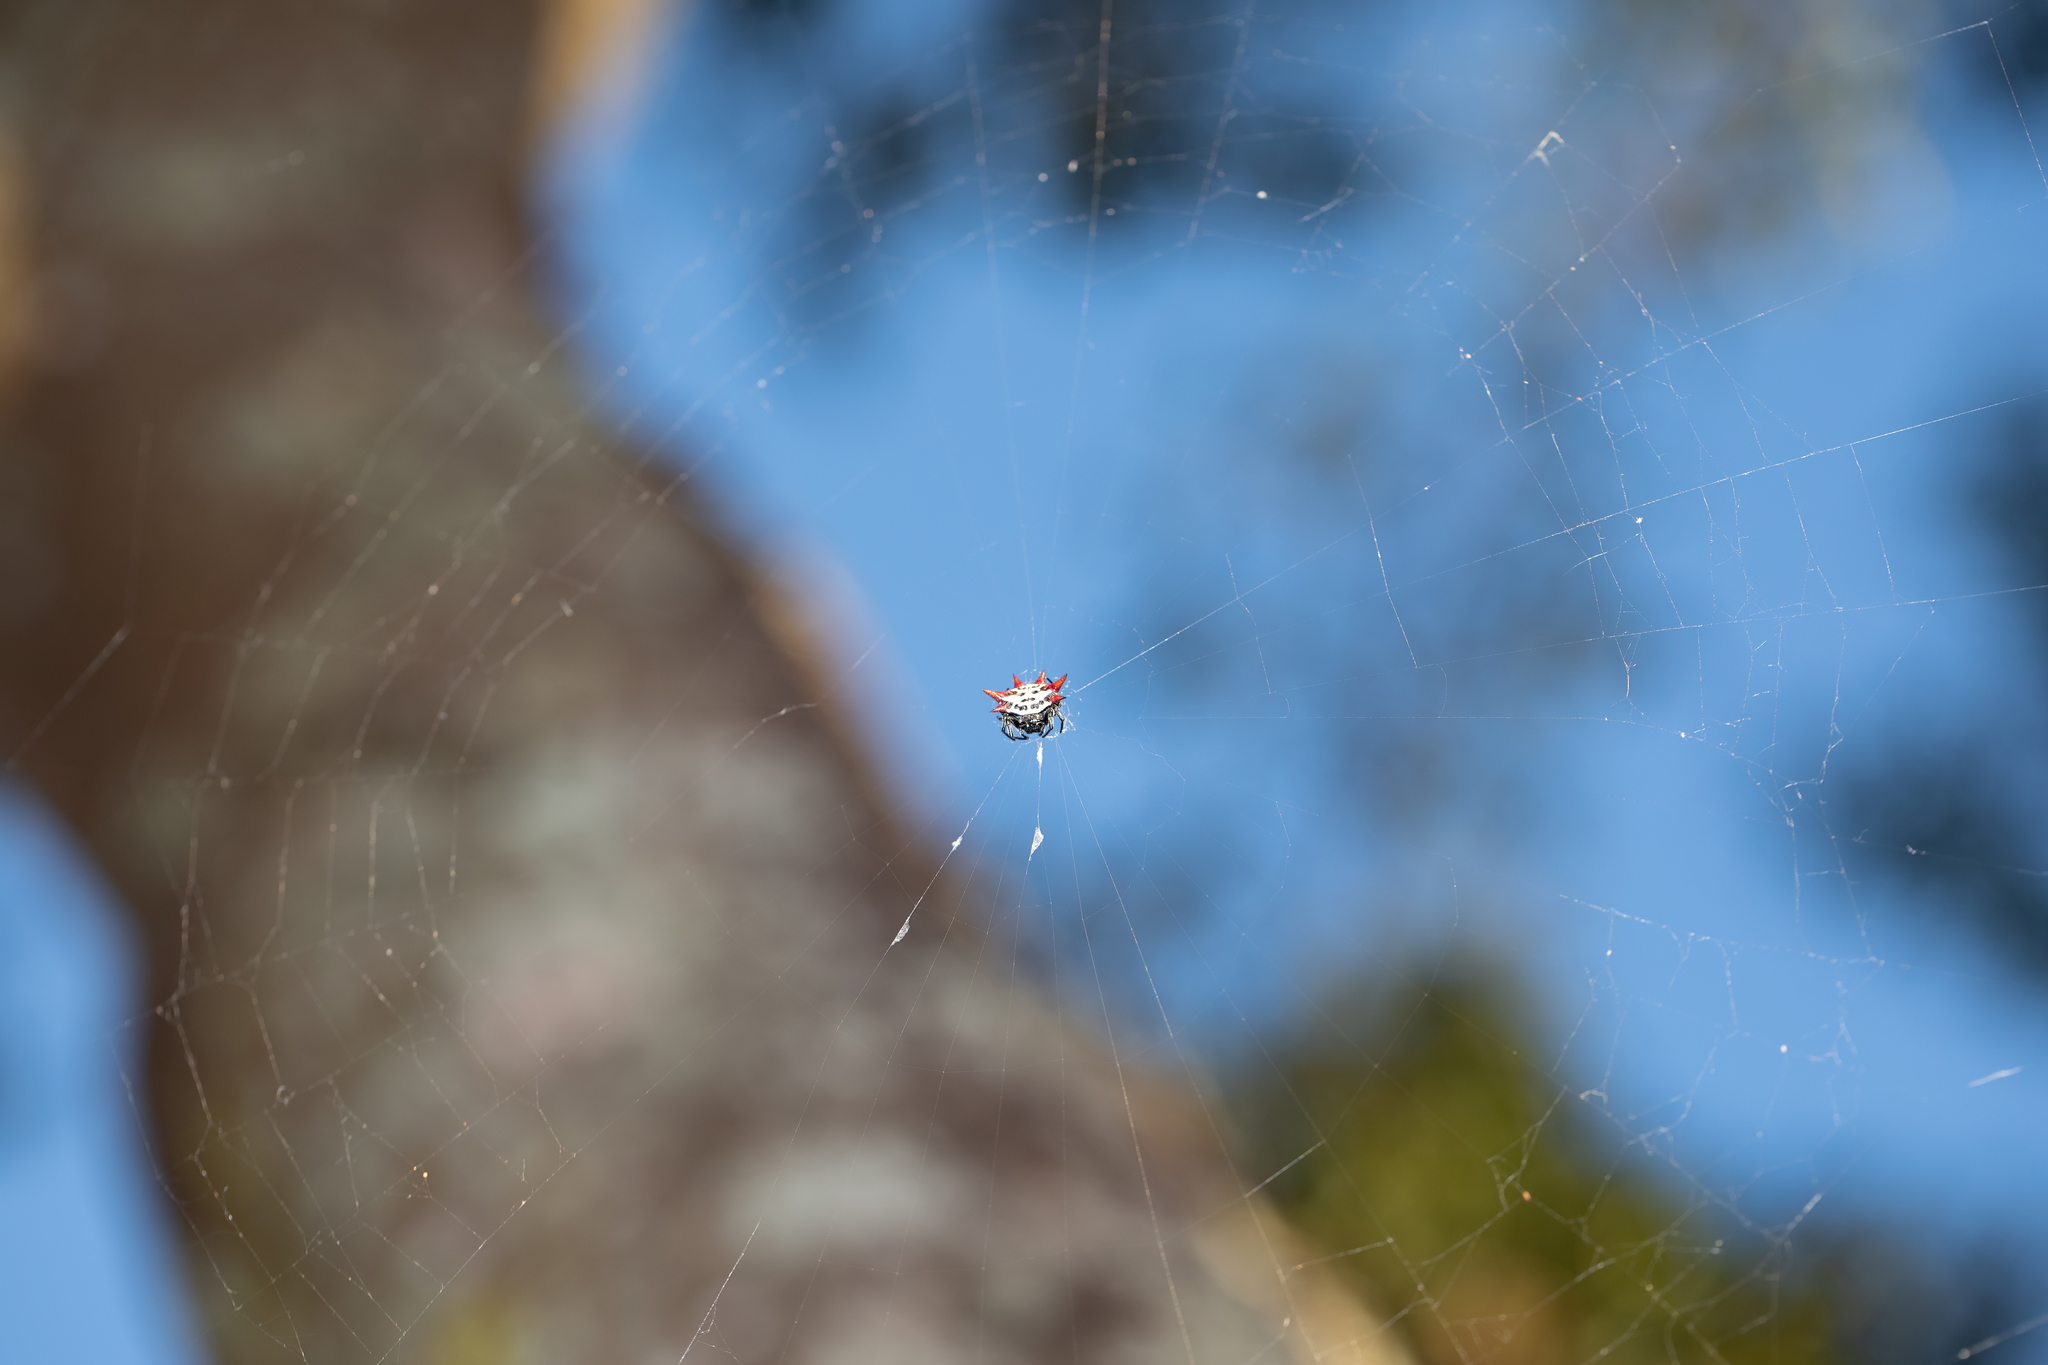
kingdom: Animalia
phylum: Arthropoda
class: Arachnida
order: Araneae
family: Araneidae
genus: Gasteracantha
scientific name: Gasteracantha cancriformis
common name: Orb weavers
